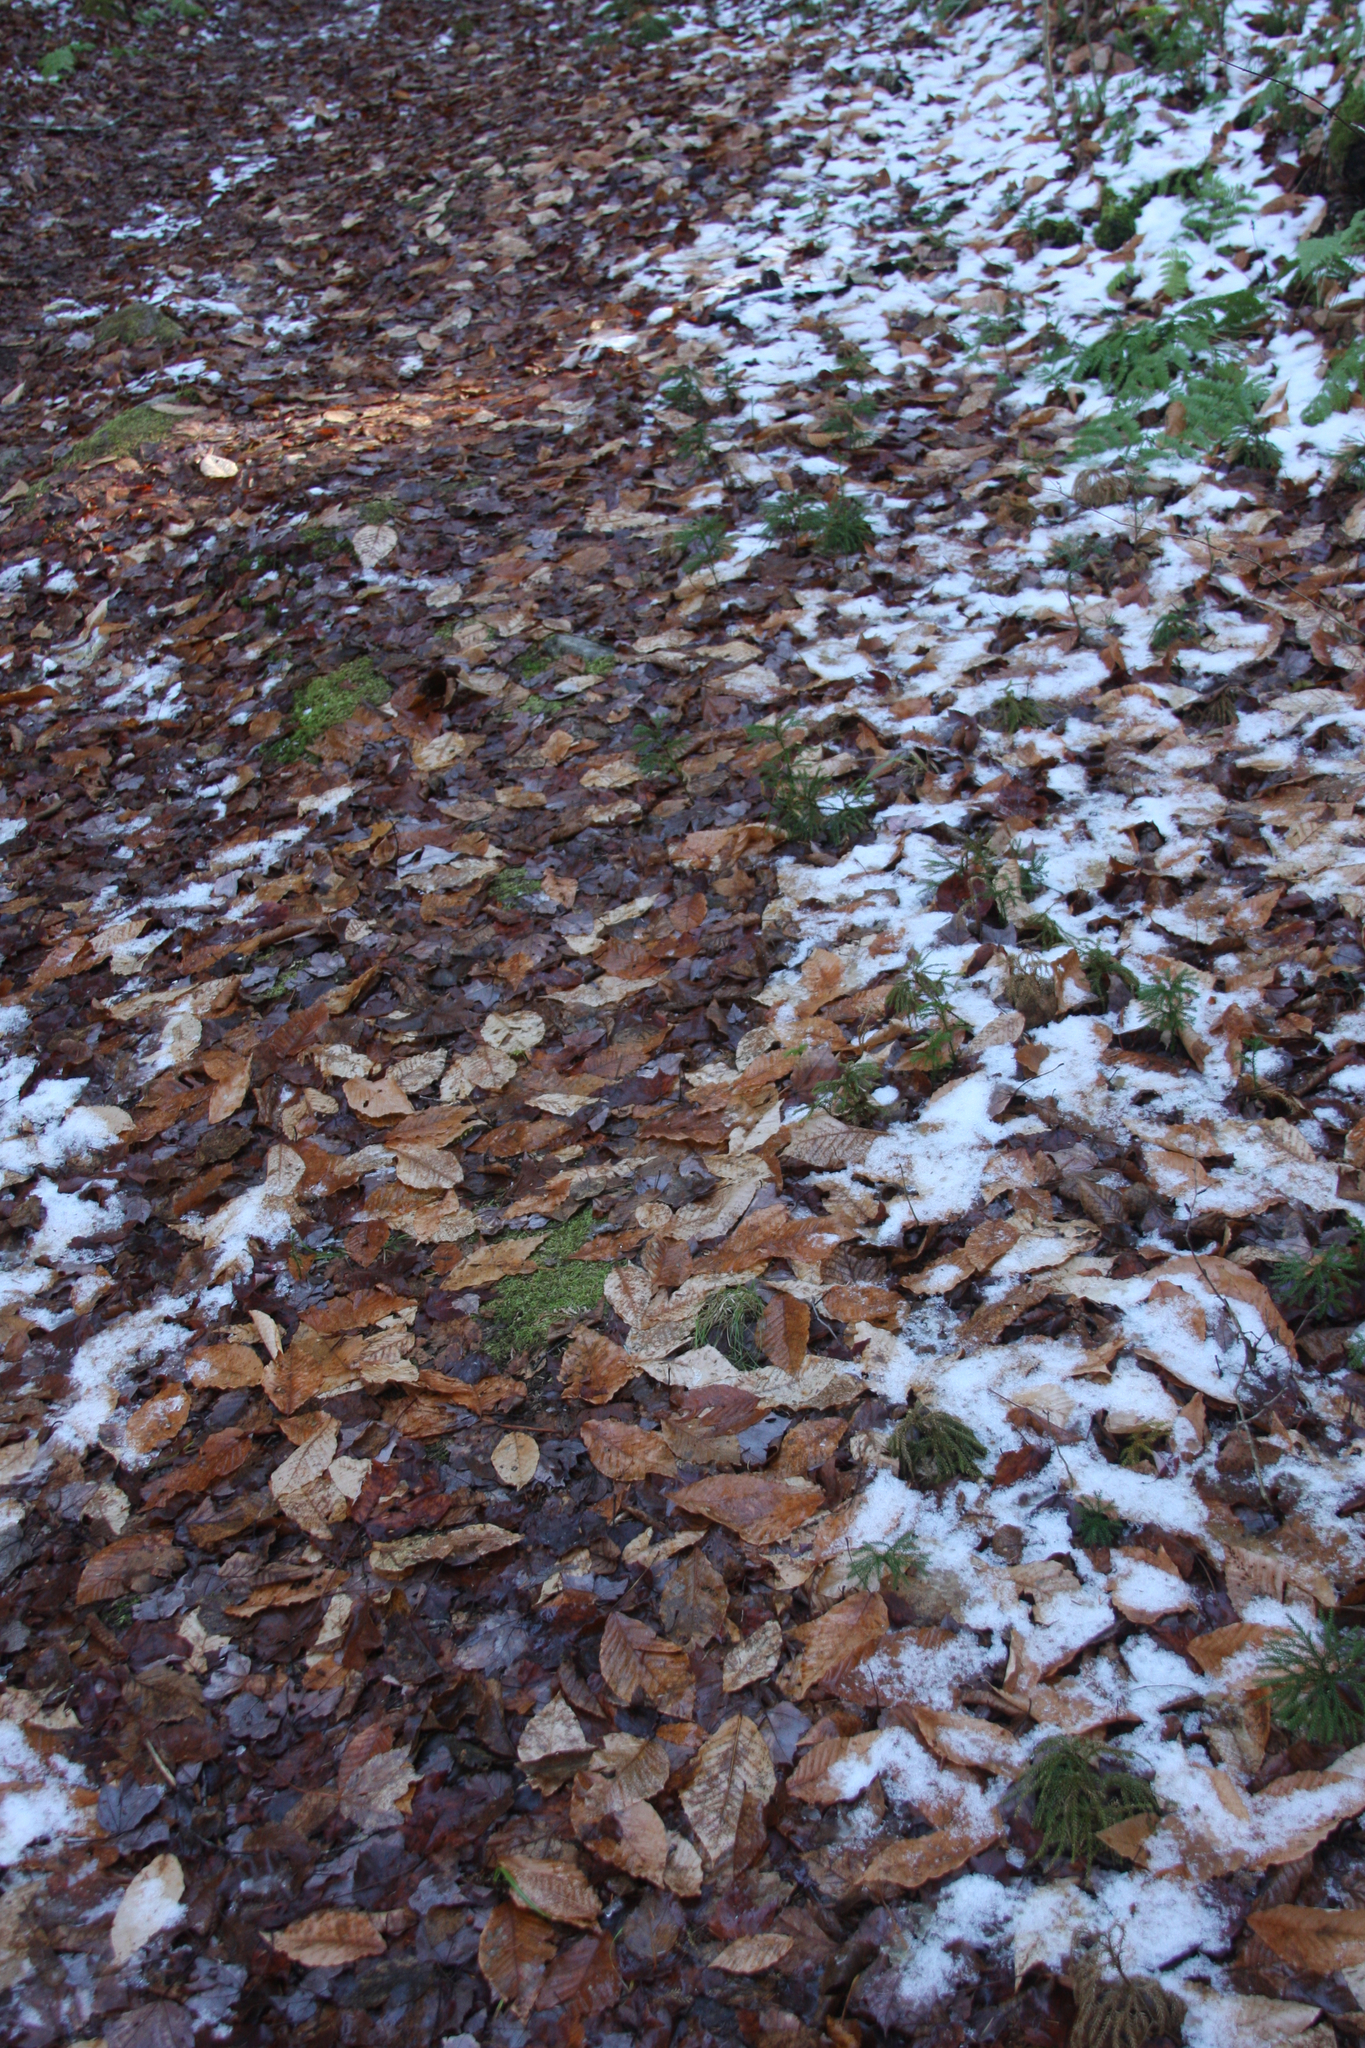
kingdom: Plantae
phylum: Tracheophyta
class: Magnoliopsida
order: Fagales
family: Fagaceae
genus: Fagus
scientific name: Fagus grandifolia
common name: American beech
